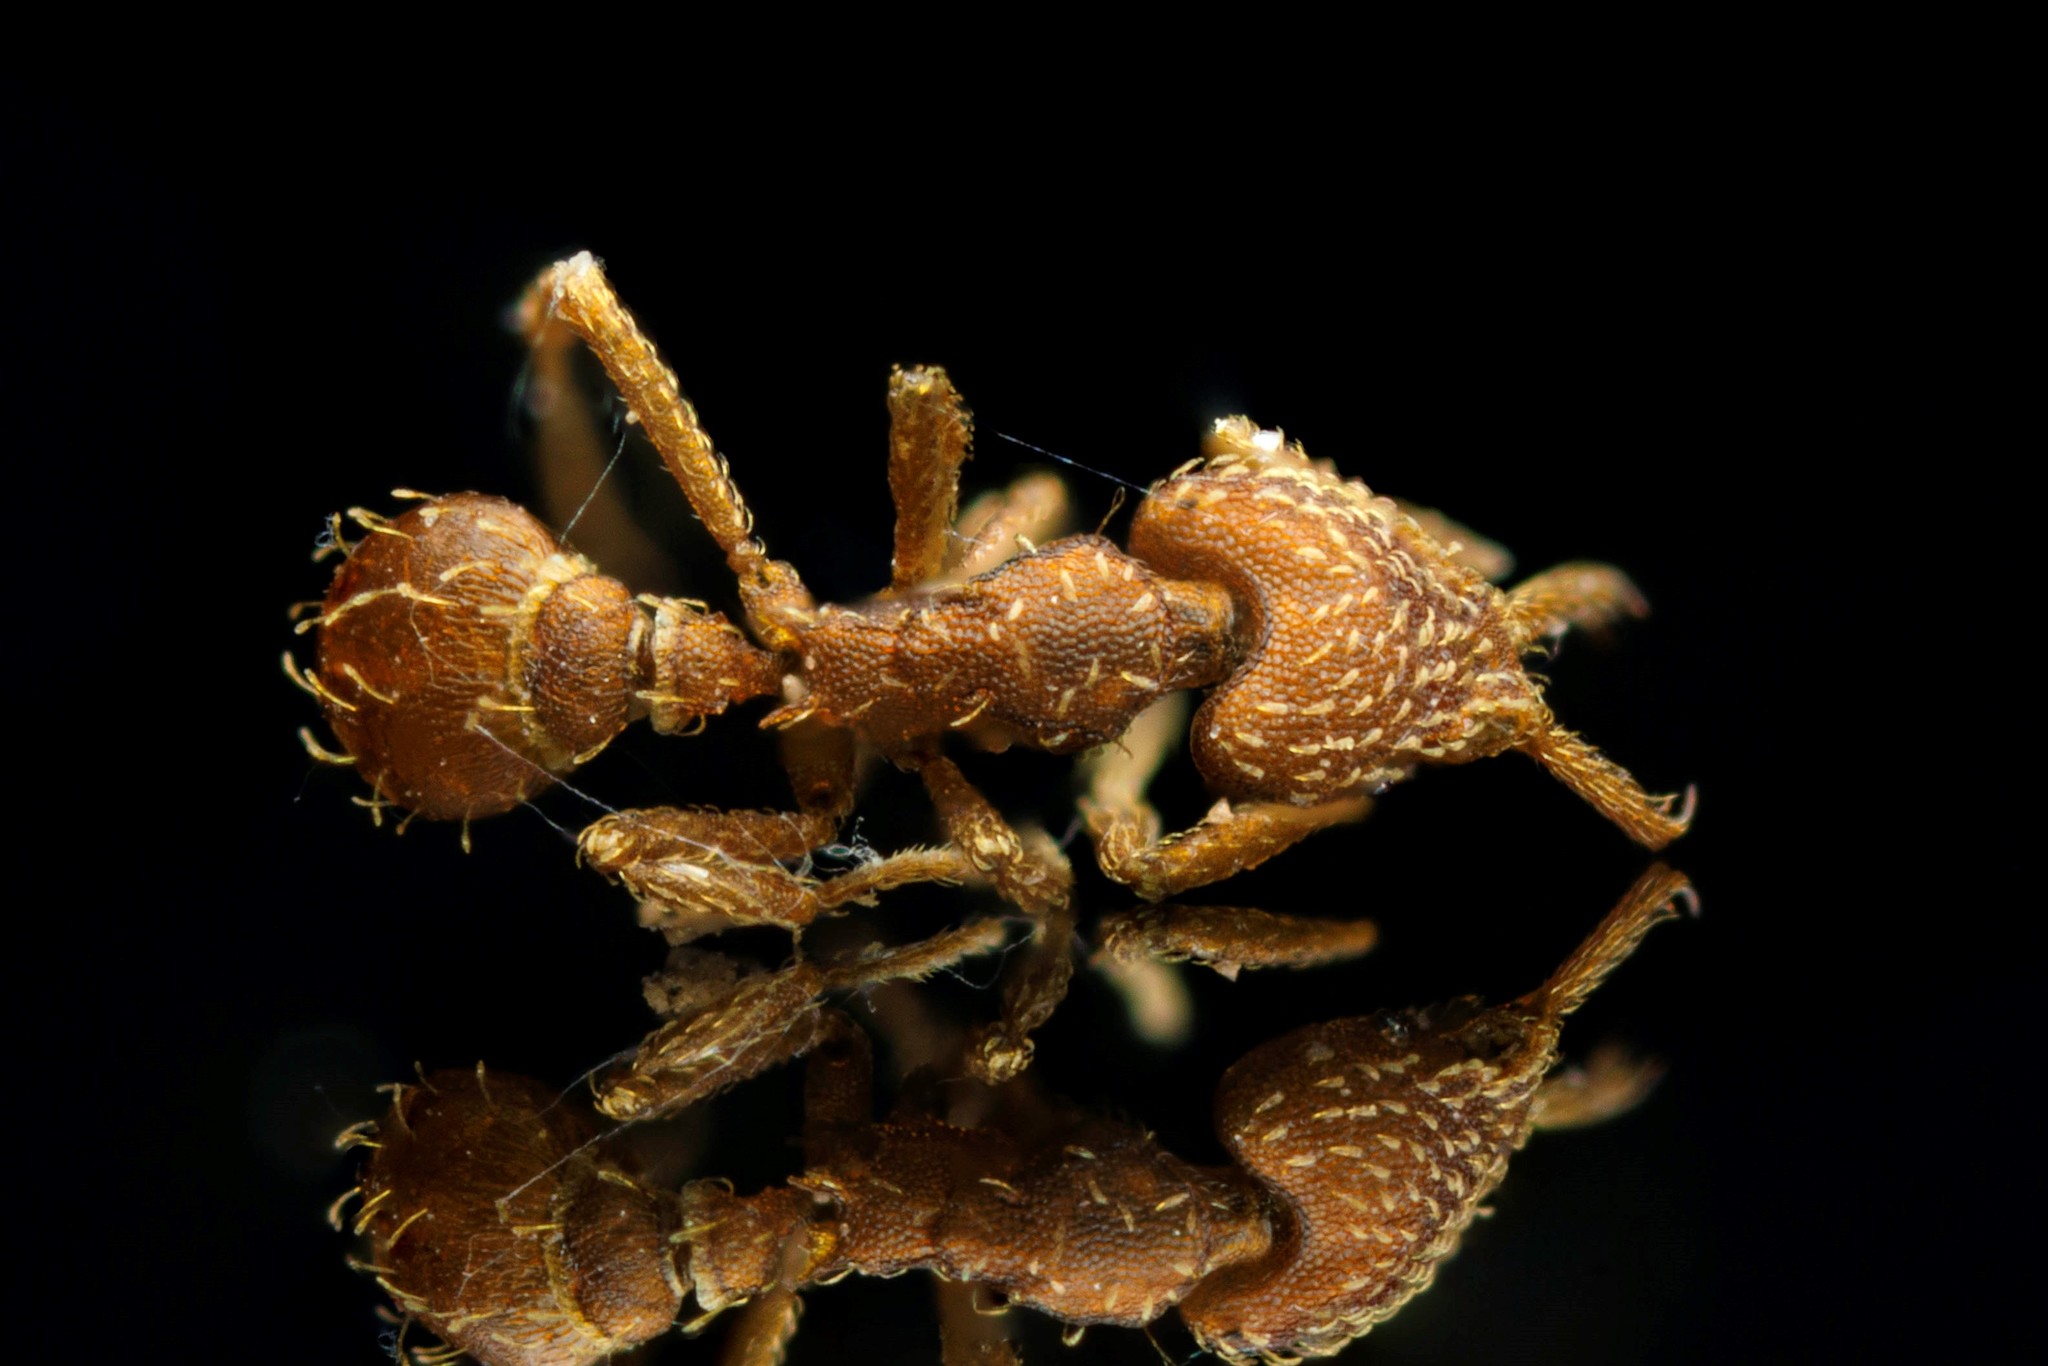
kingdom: Animalia
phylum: Arthropoda
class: Insecta
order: Hymenoptera
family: Formicidae
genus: Strumigenys
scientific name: Strumigenys mixta
